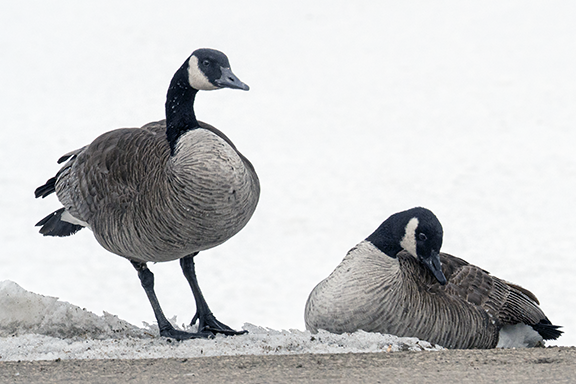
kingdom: Animalia
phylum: Chordata
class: Aves
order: Anseriformes
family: Anatidae
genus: Branta
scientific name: Branta canadensis
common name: Canada goose
